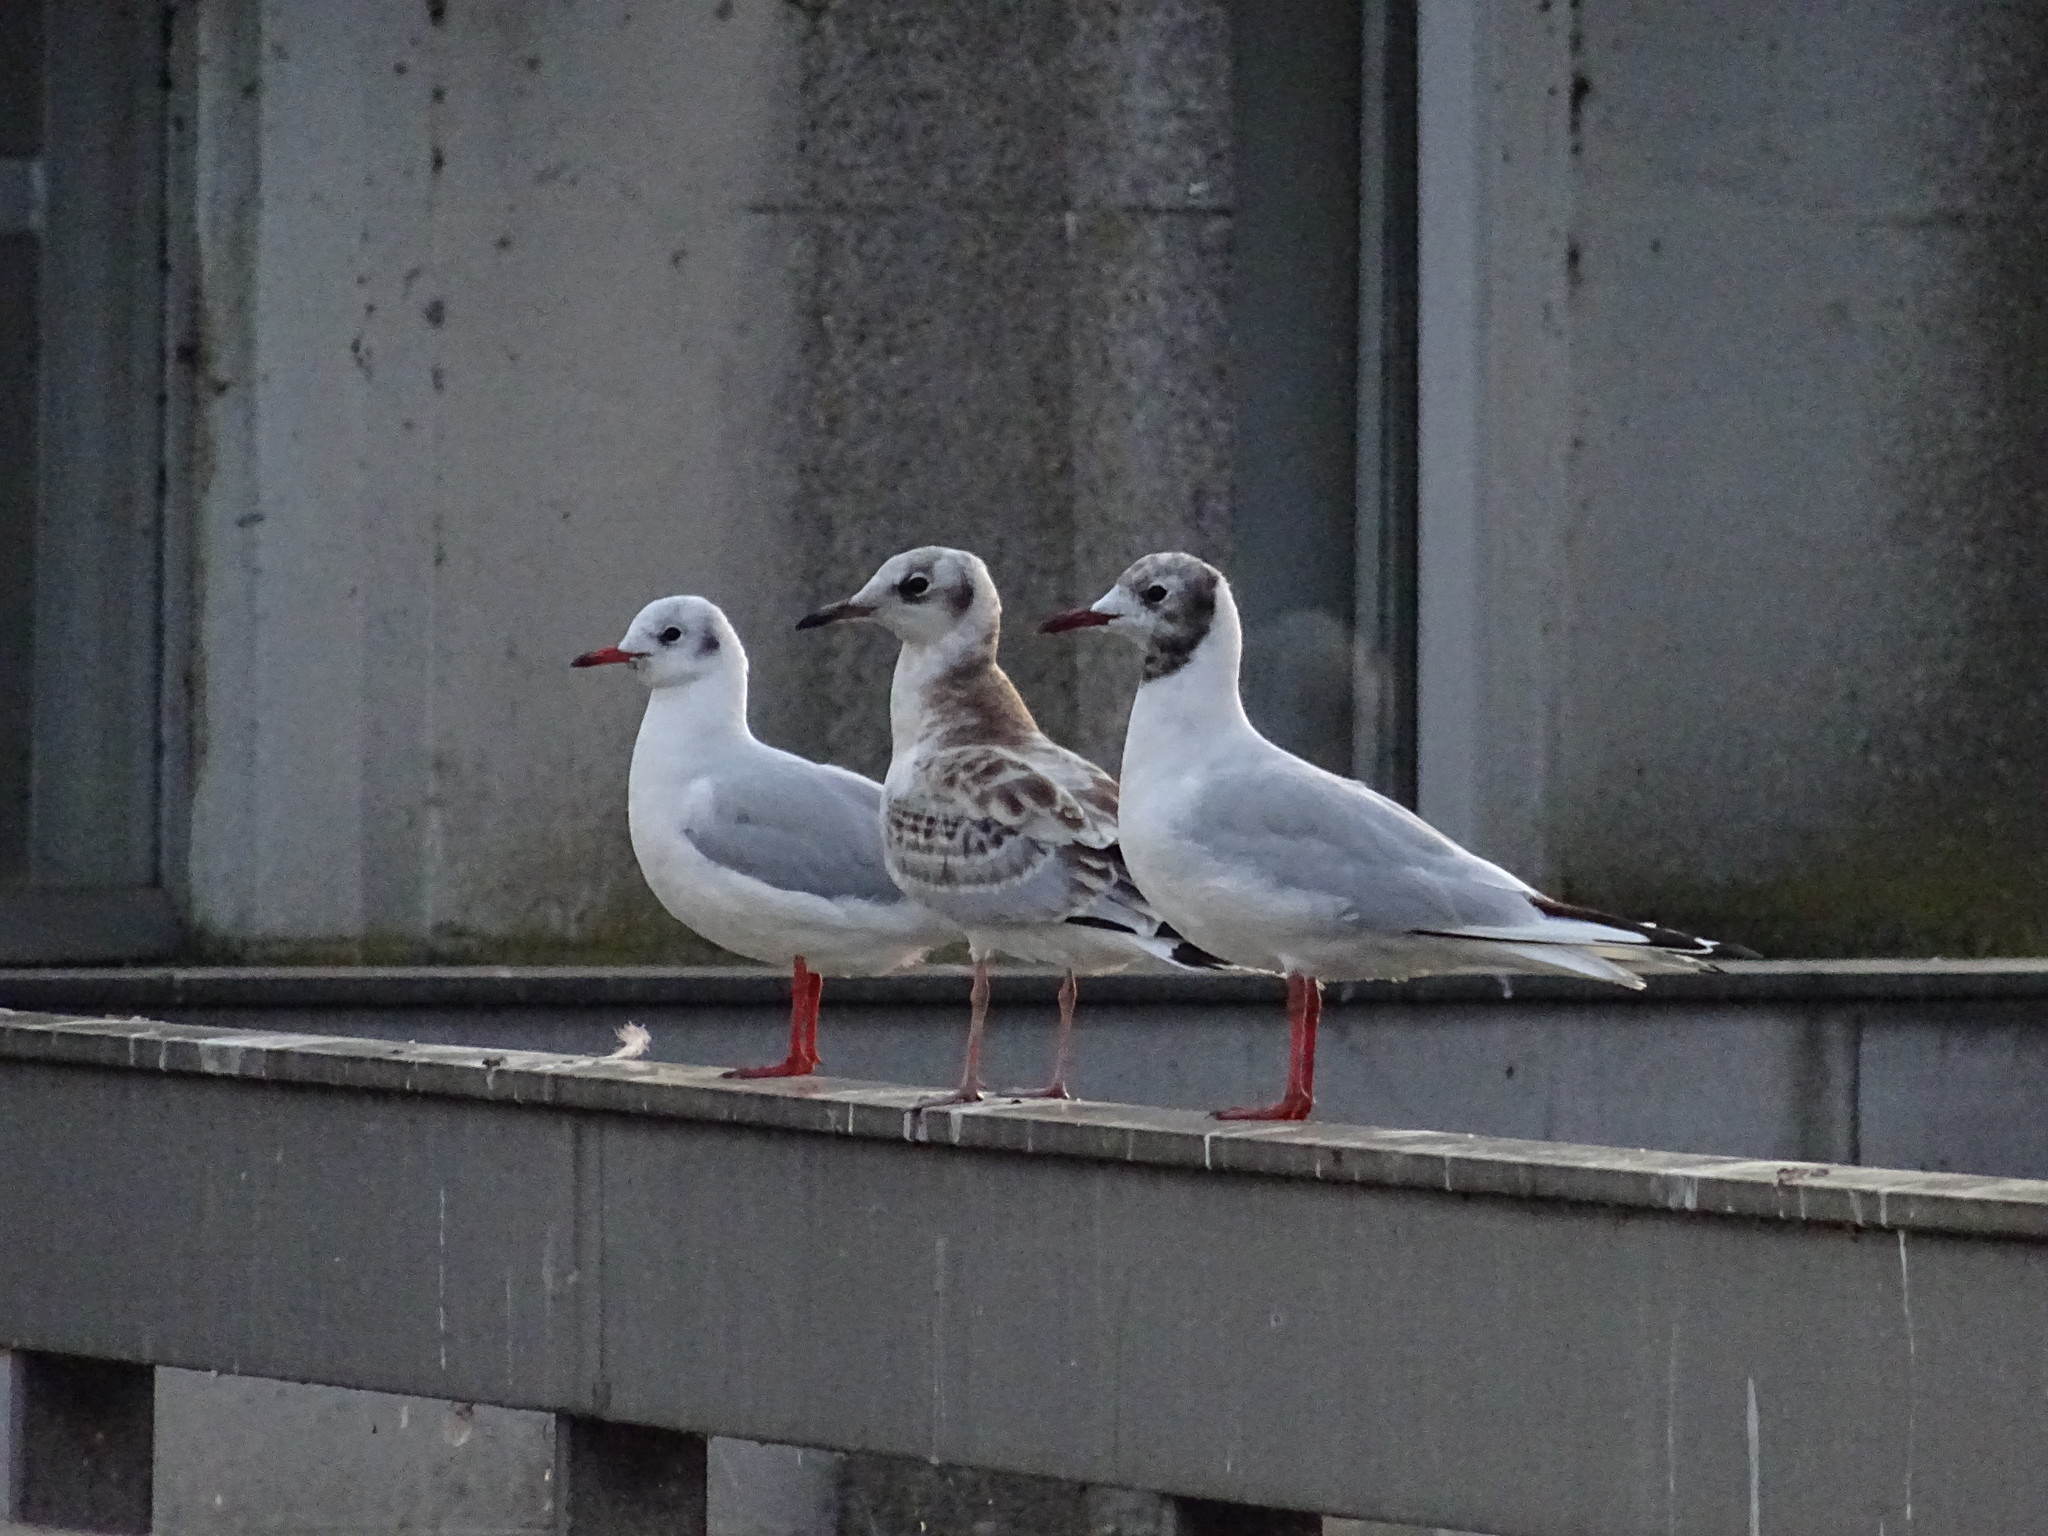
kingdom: Animalia
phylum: Chordata
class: Aves
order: Charadriiformes
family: Laridae
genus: Chroicocephalus
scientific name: Chroicocephalus ridibundus
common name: Black-headed gull
